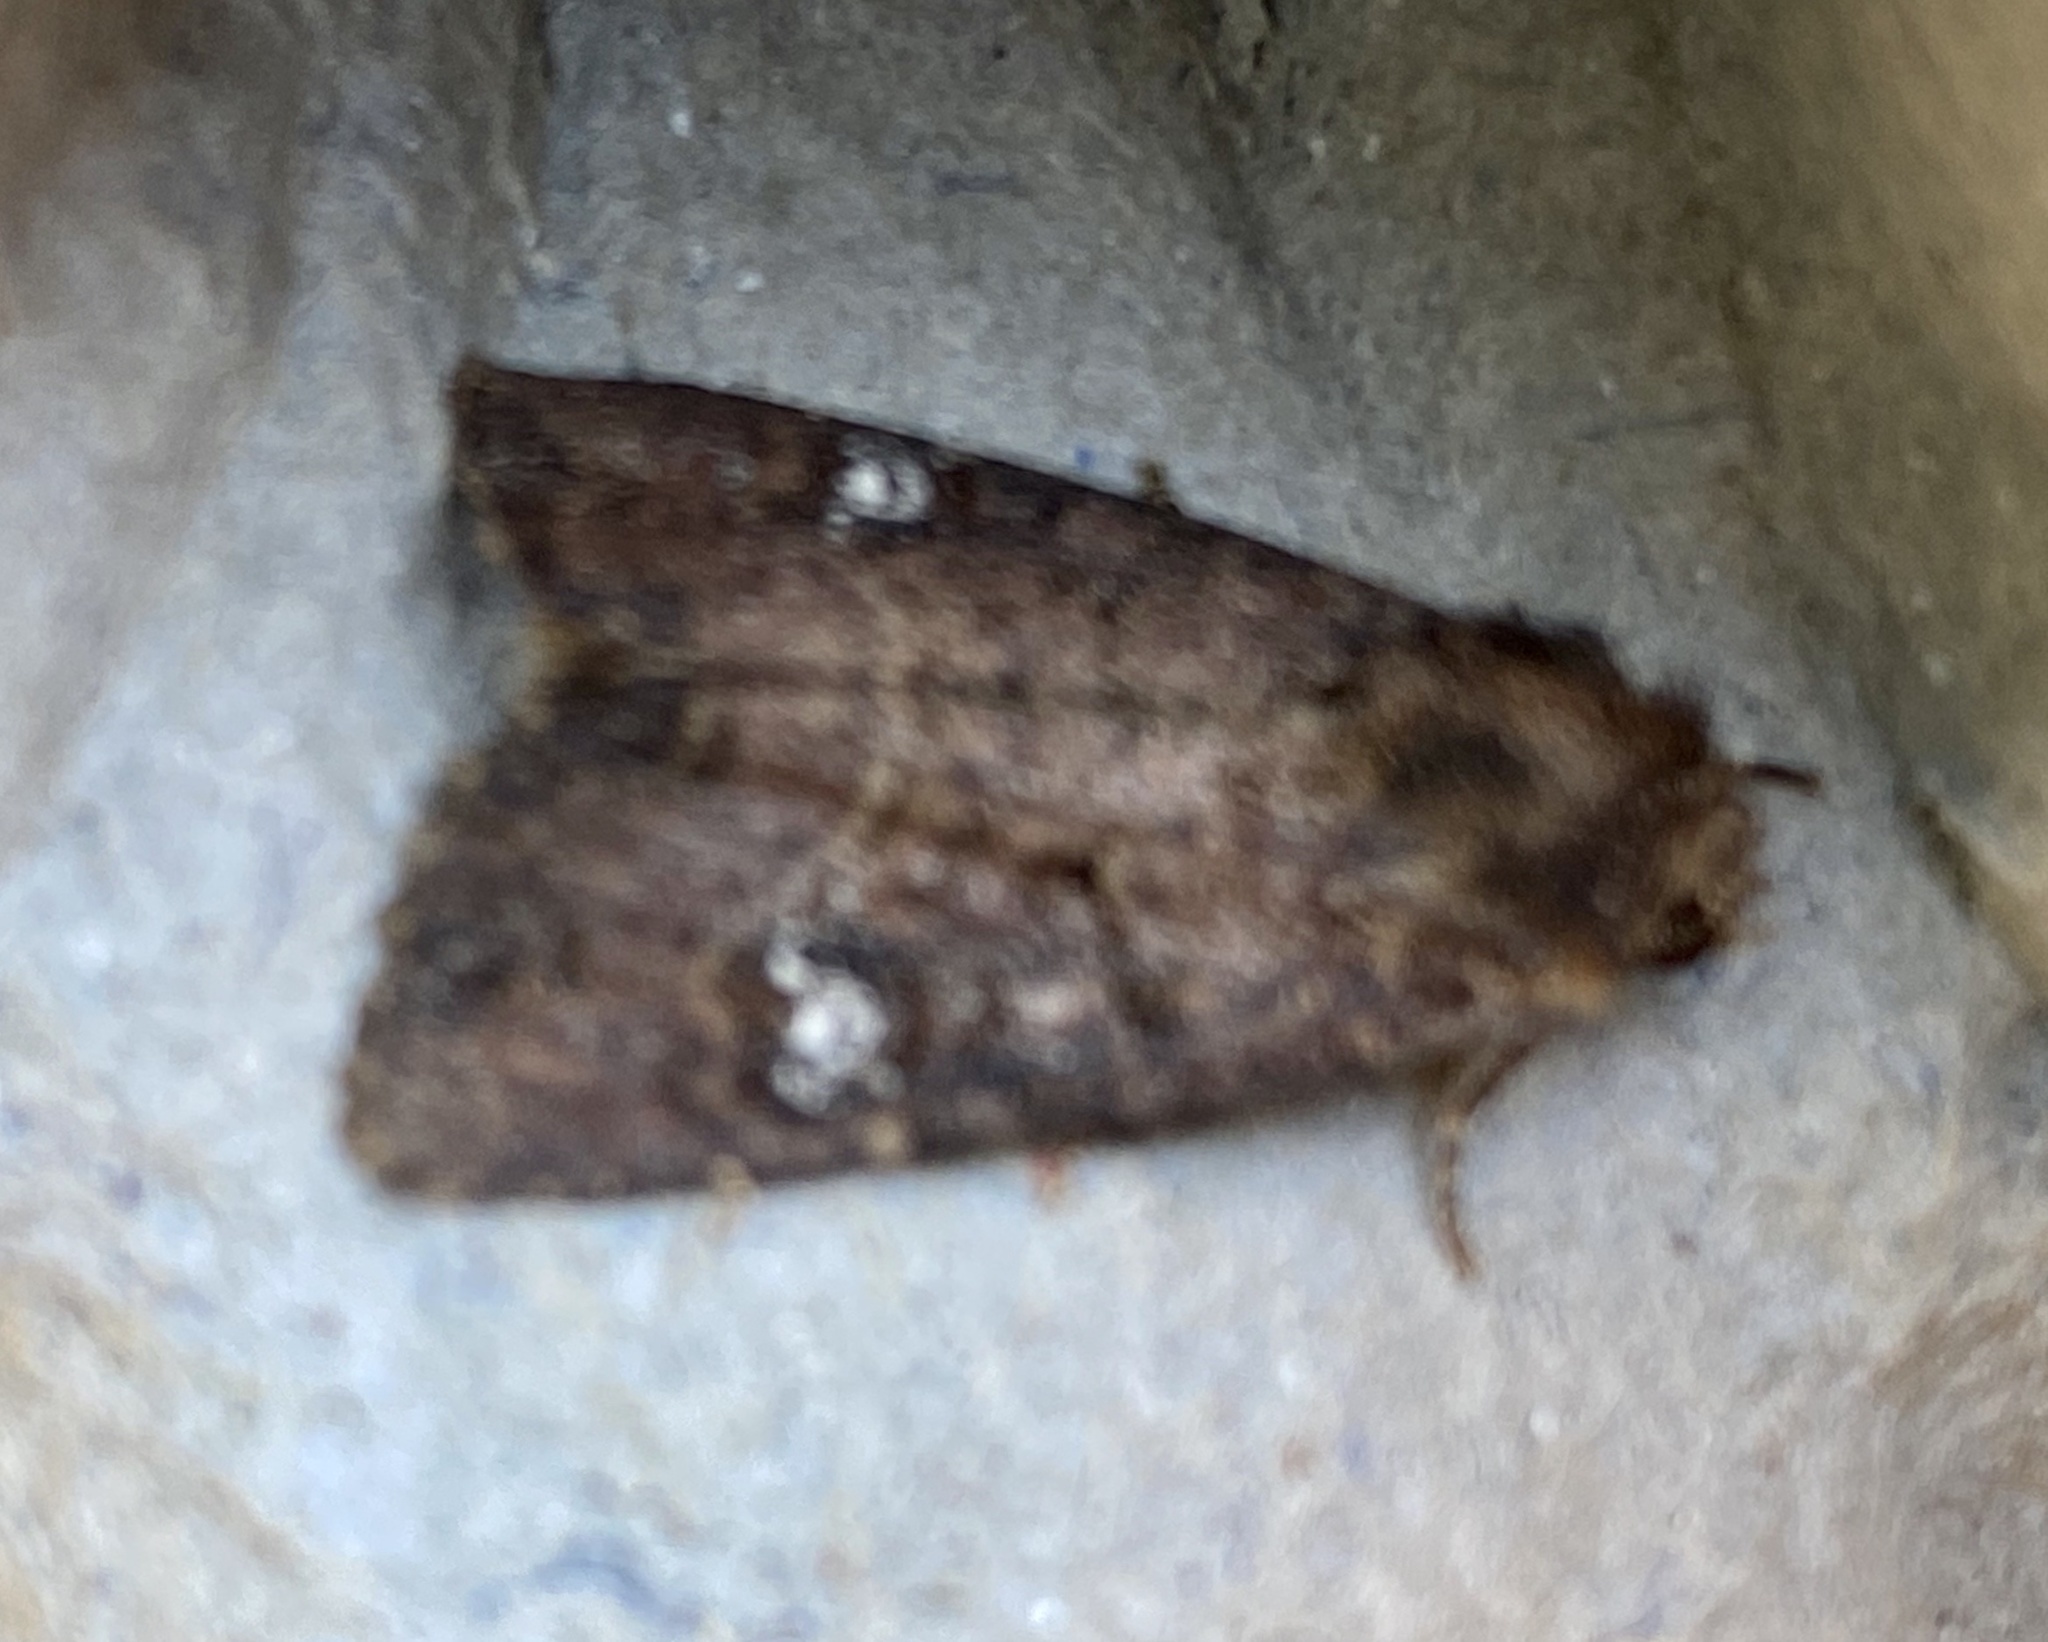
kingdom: Animalia
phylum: Arthropoda
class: Insecta
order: Lepidoptera
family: Noctuidae
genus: Mesapamea
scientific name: Mesapamea
